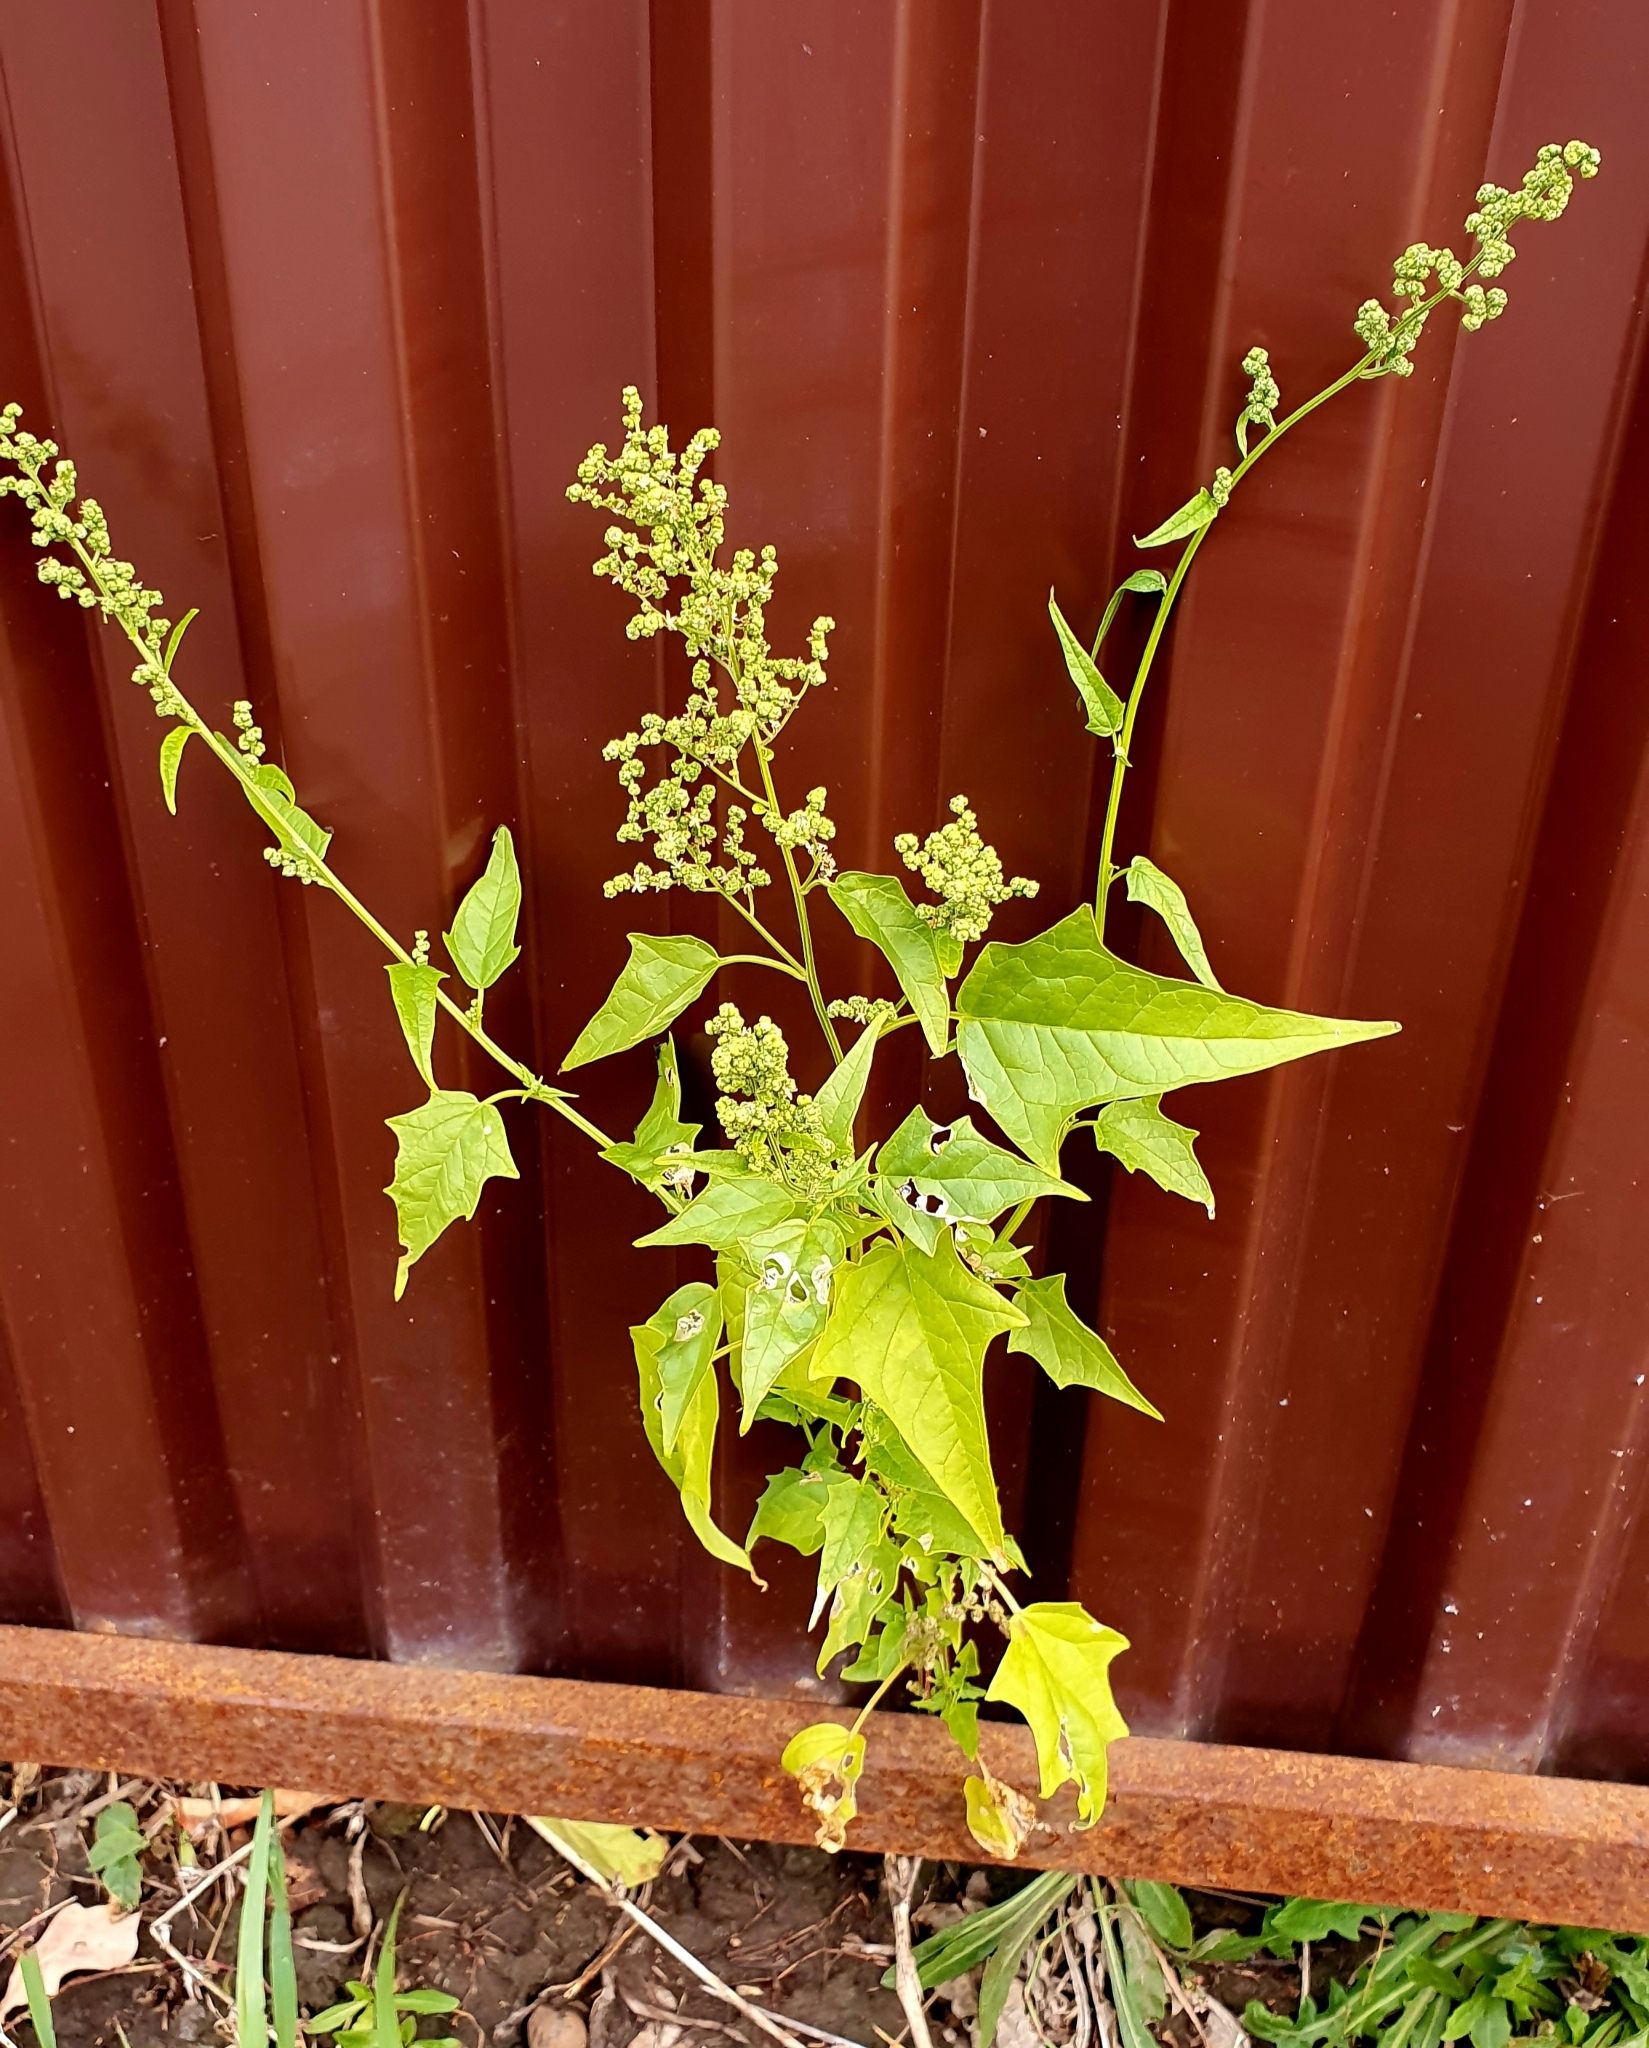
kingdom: Plantae
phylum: Tracheophyta
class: Magnoliopsida
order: Caryophyllales
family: Amaranthaceae
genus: Chenopodiastrum
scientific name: Chenopodiastrum hybridum
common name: Mapleleaf goosefoot
